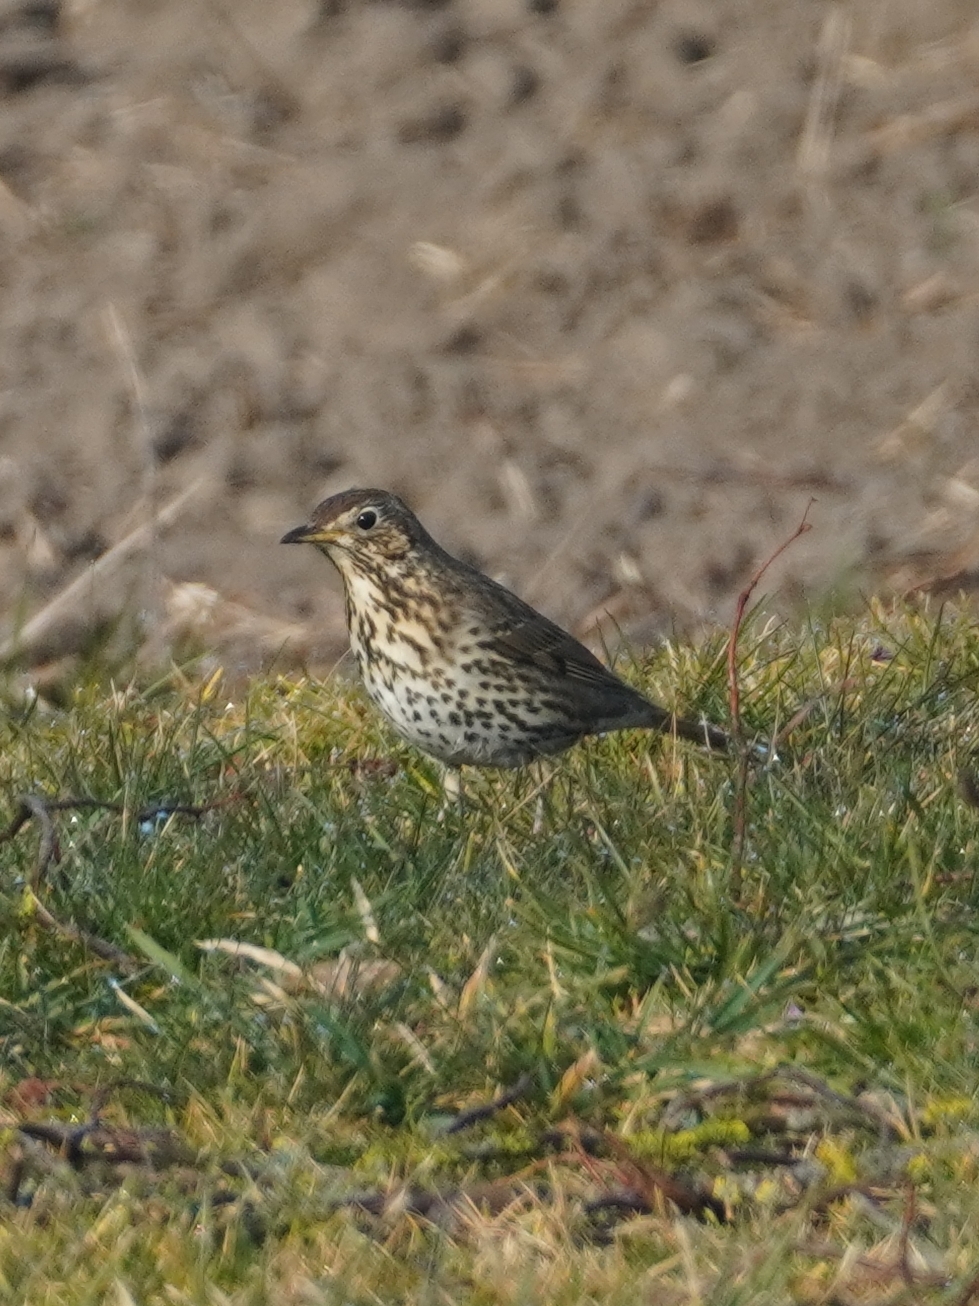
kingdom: Animalia
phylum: Chordata
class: Aves
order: Passeriformes
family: Turdidae
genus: Turdus
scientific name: Turdus philomelos
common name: Song thrush
